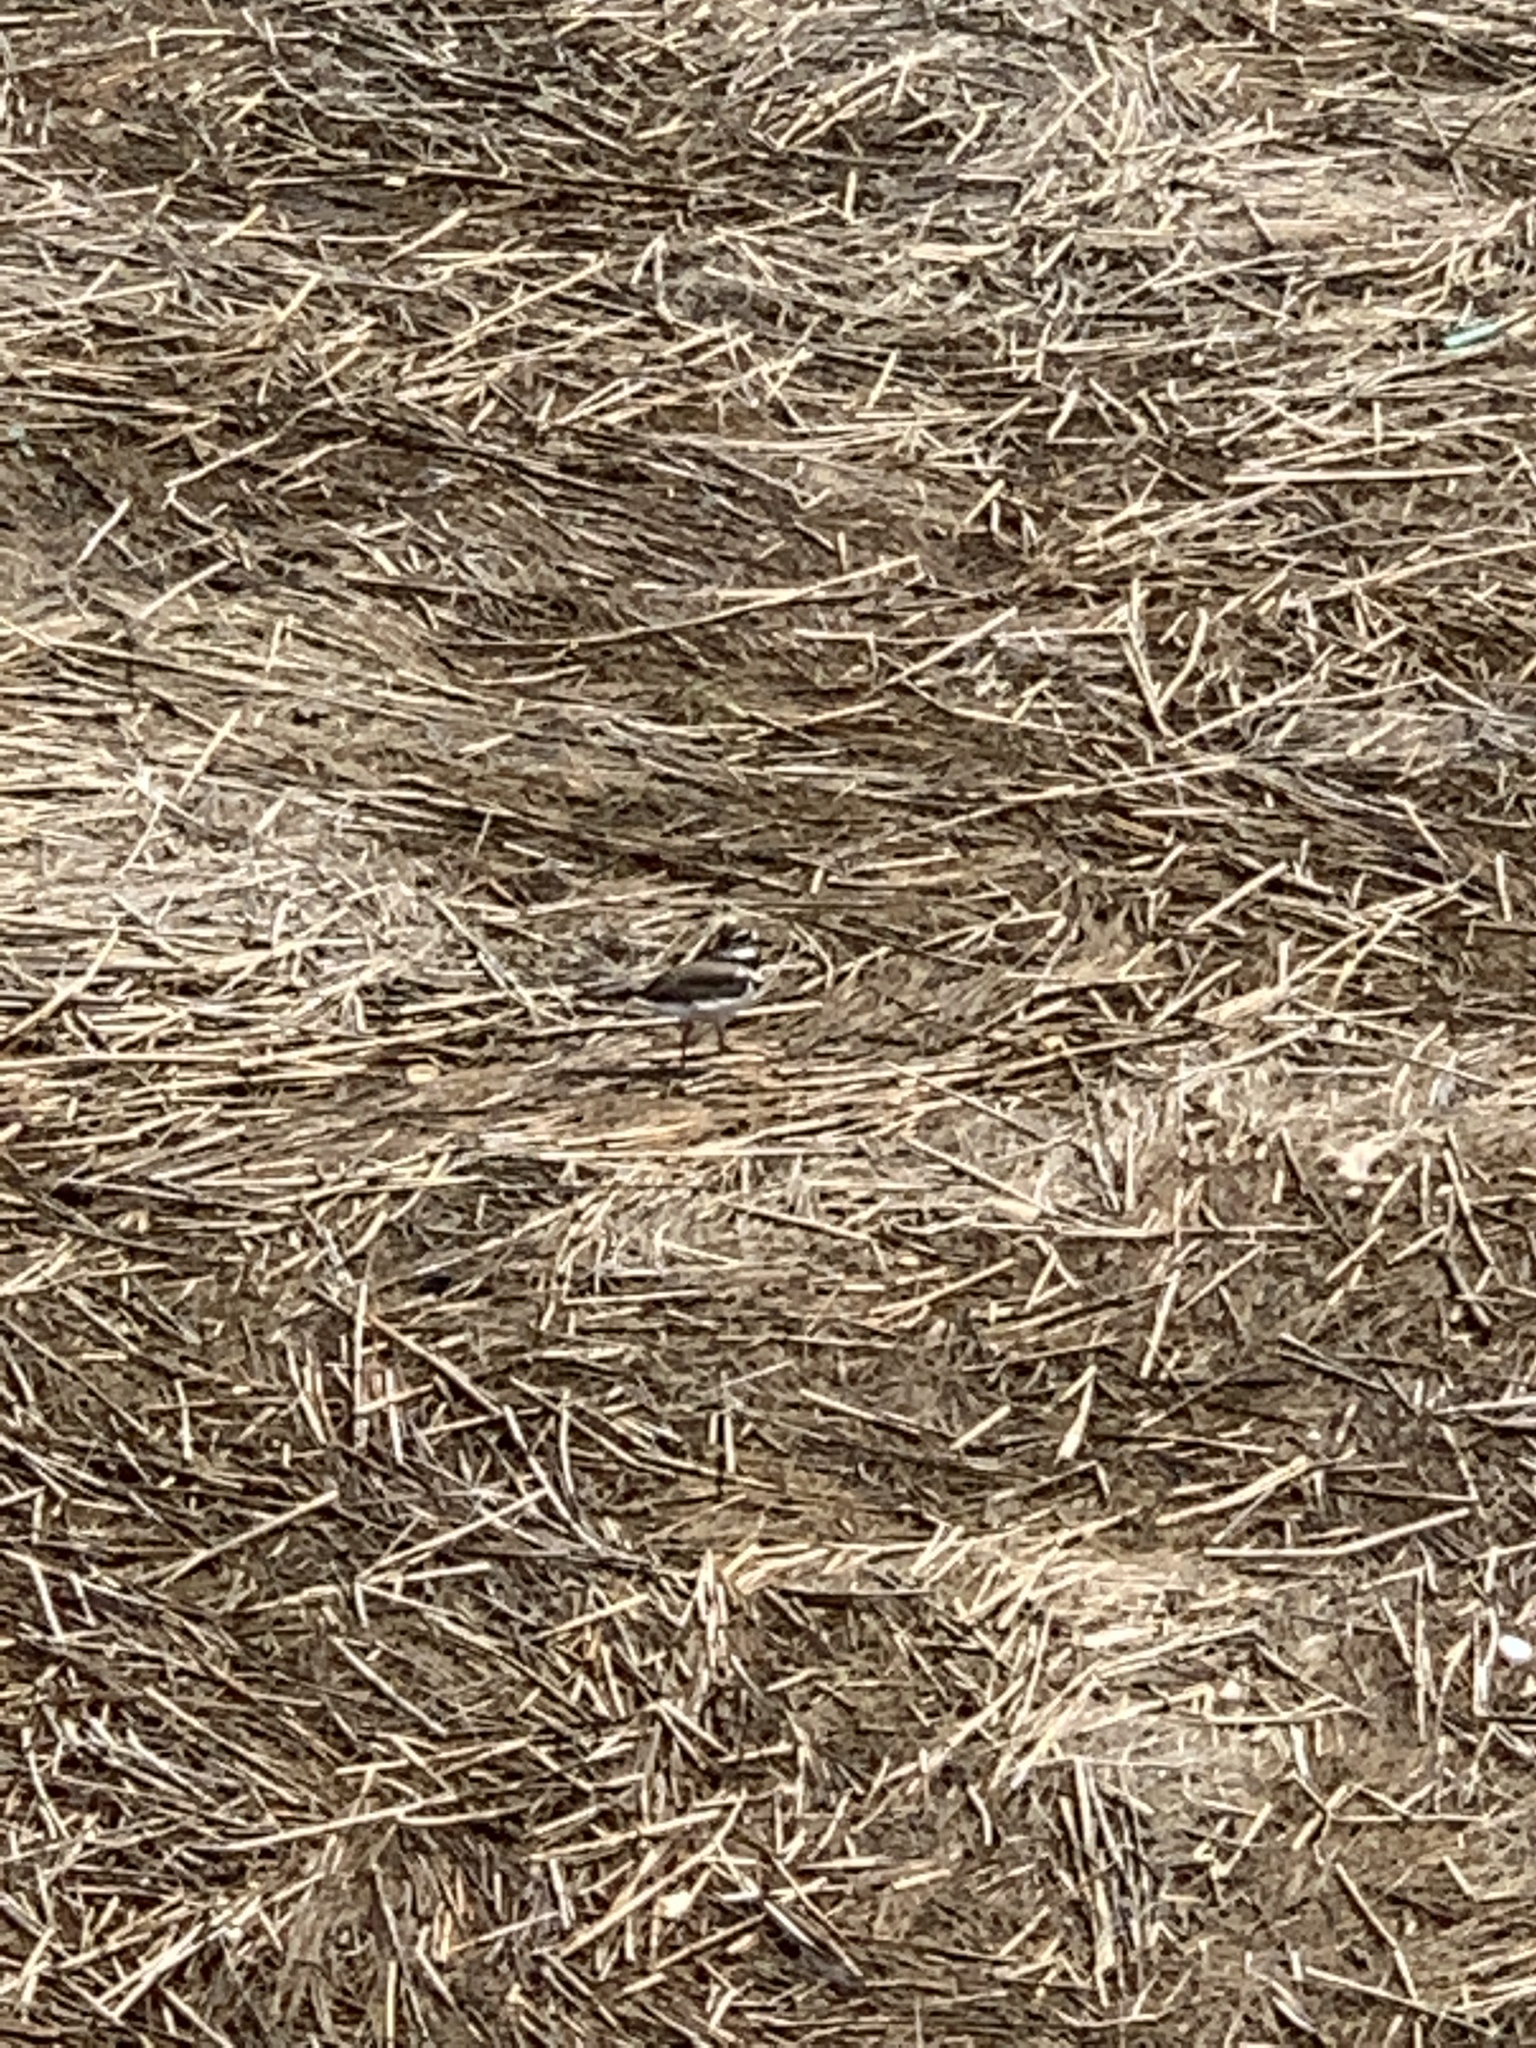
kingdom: Animalia
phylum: Chordata
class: Aves
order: Charadriiformes
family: Charadriidae
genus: Charadrius
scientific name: Charadrius vociferus
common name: Killdeer
